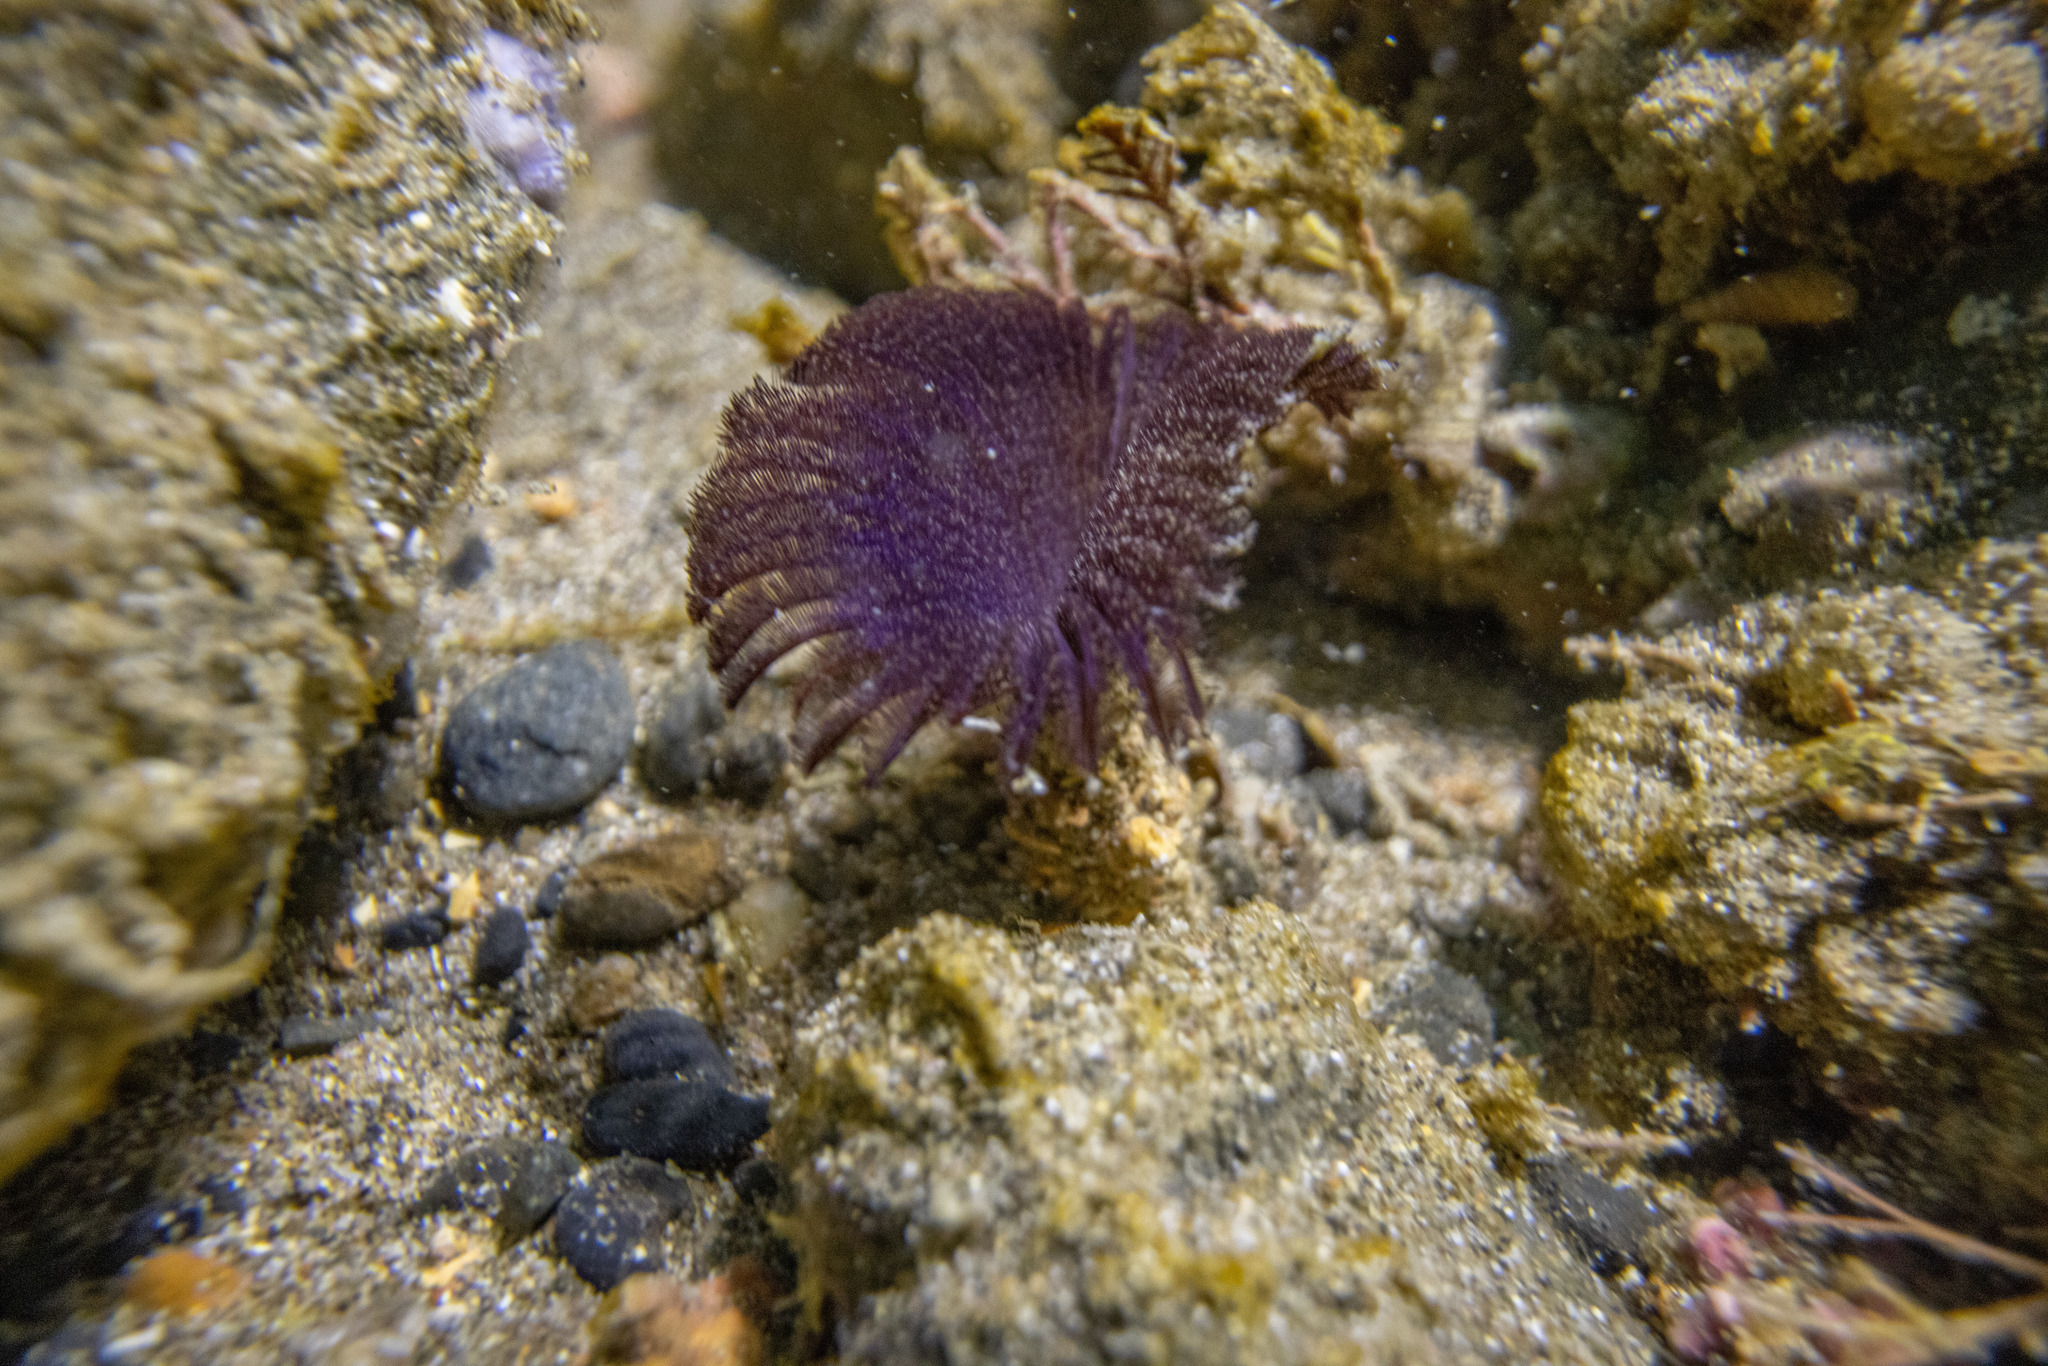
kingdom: Animalia
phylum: Annelida
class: Polychaeta
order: Sabellida
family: Sabellidae
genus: Acromegalomma
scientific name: Acromegalomma suspiciens
